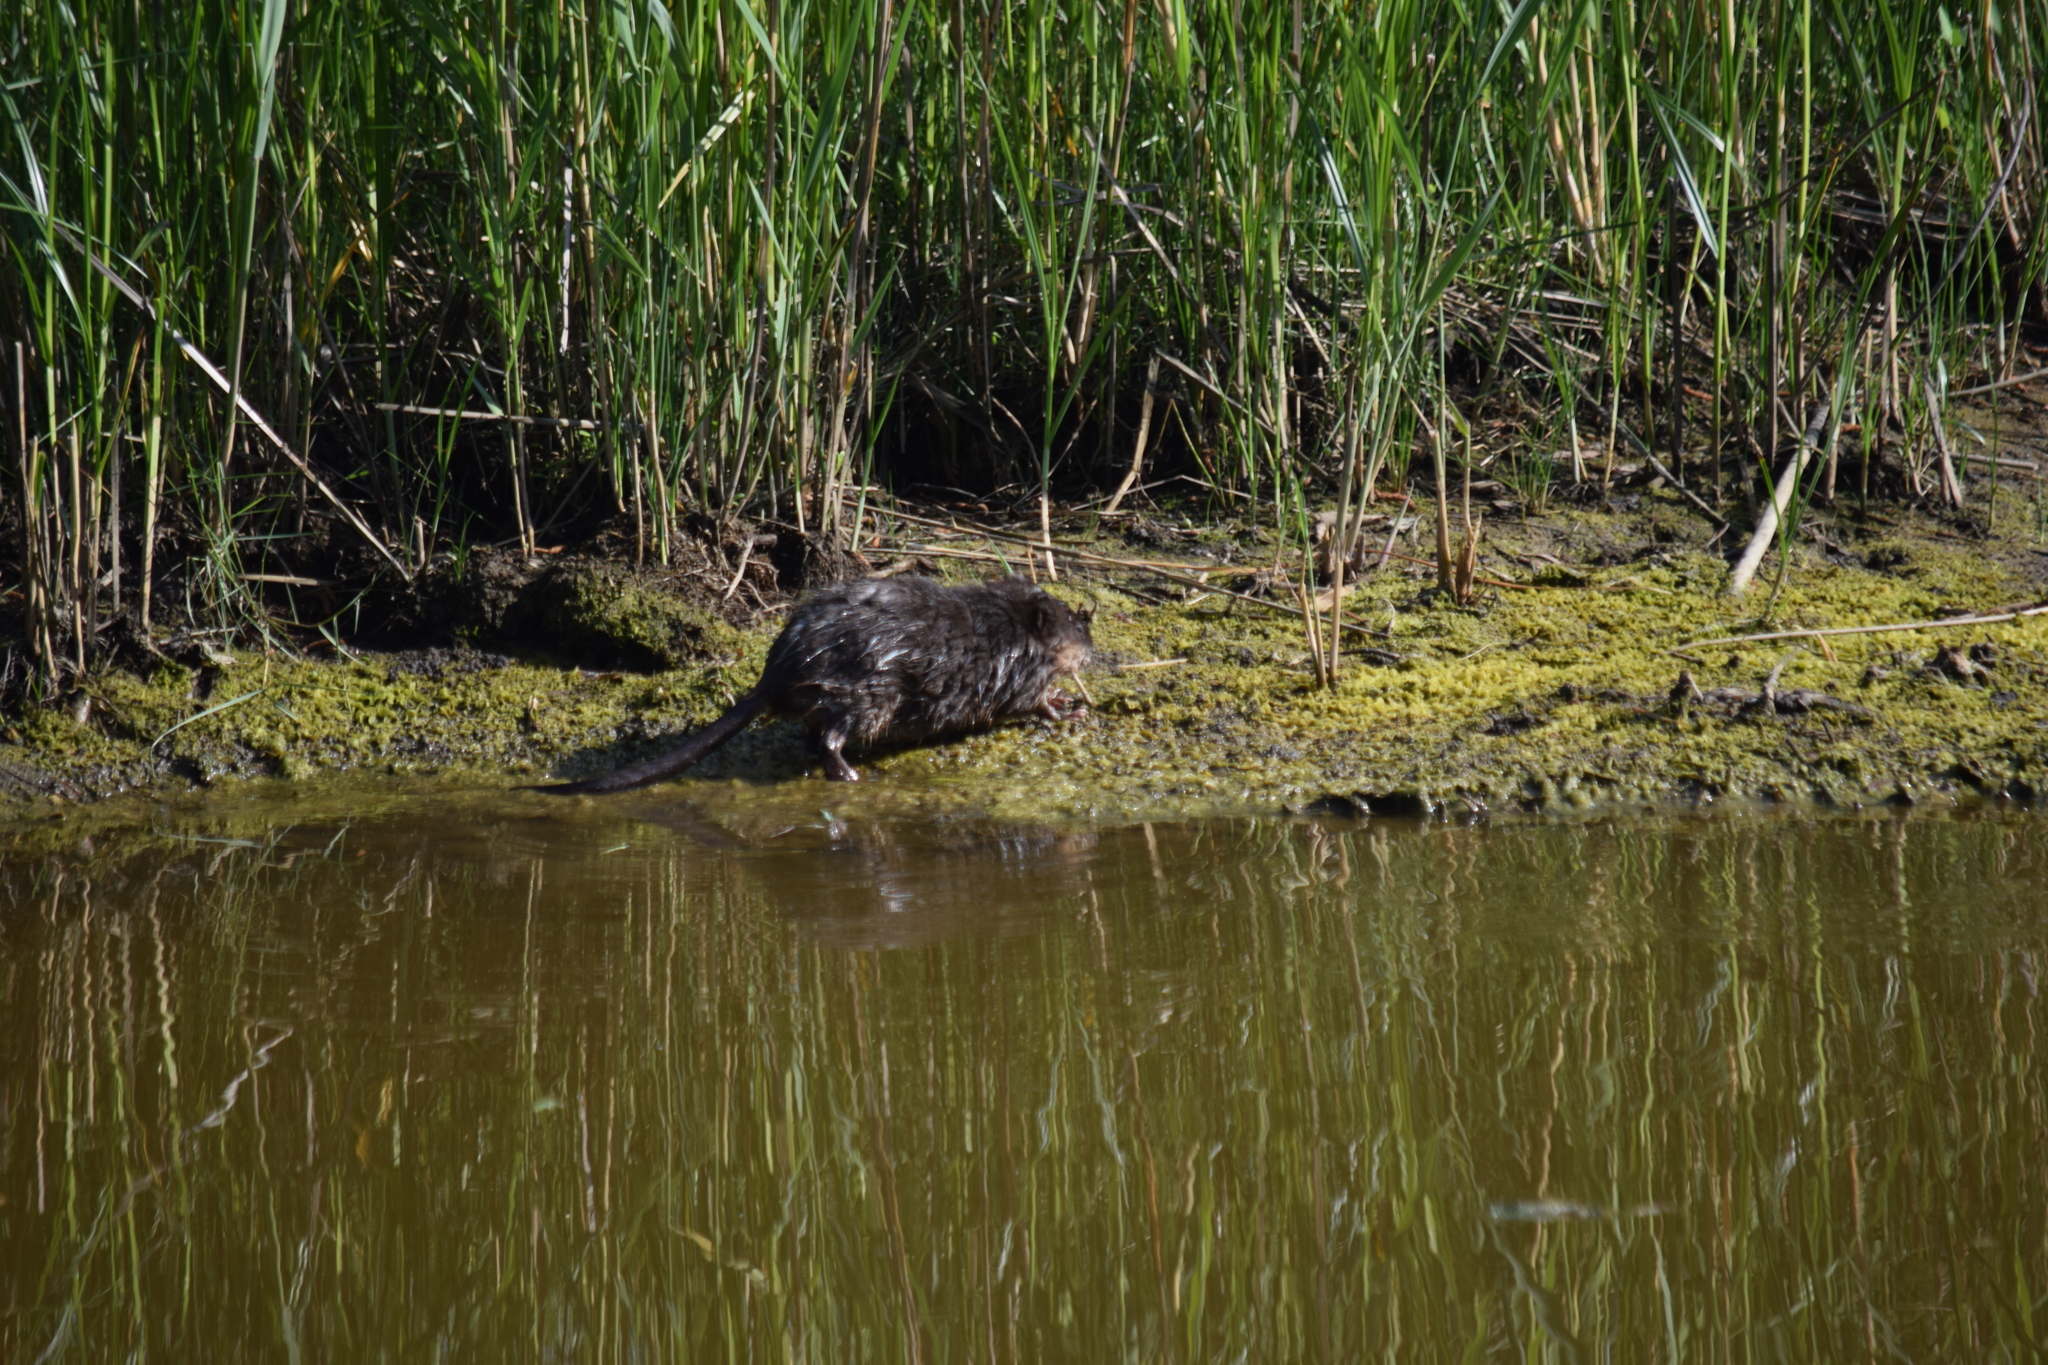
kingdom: Animalia
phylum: Chordata
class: Mammalia
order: Rodentia
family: Cricetidae
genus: Ondatra
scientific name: Ondatra zibethicus
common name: Muskrat
